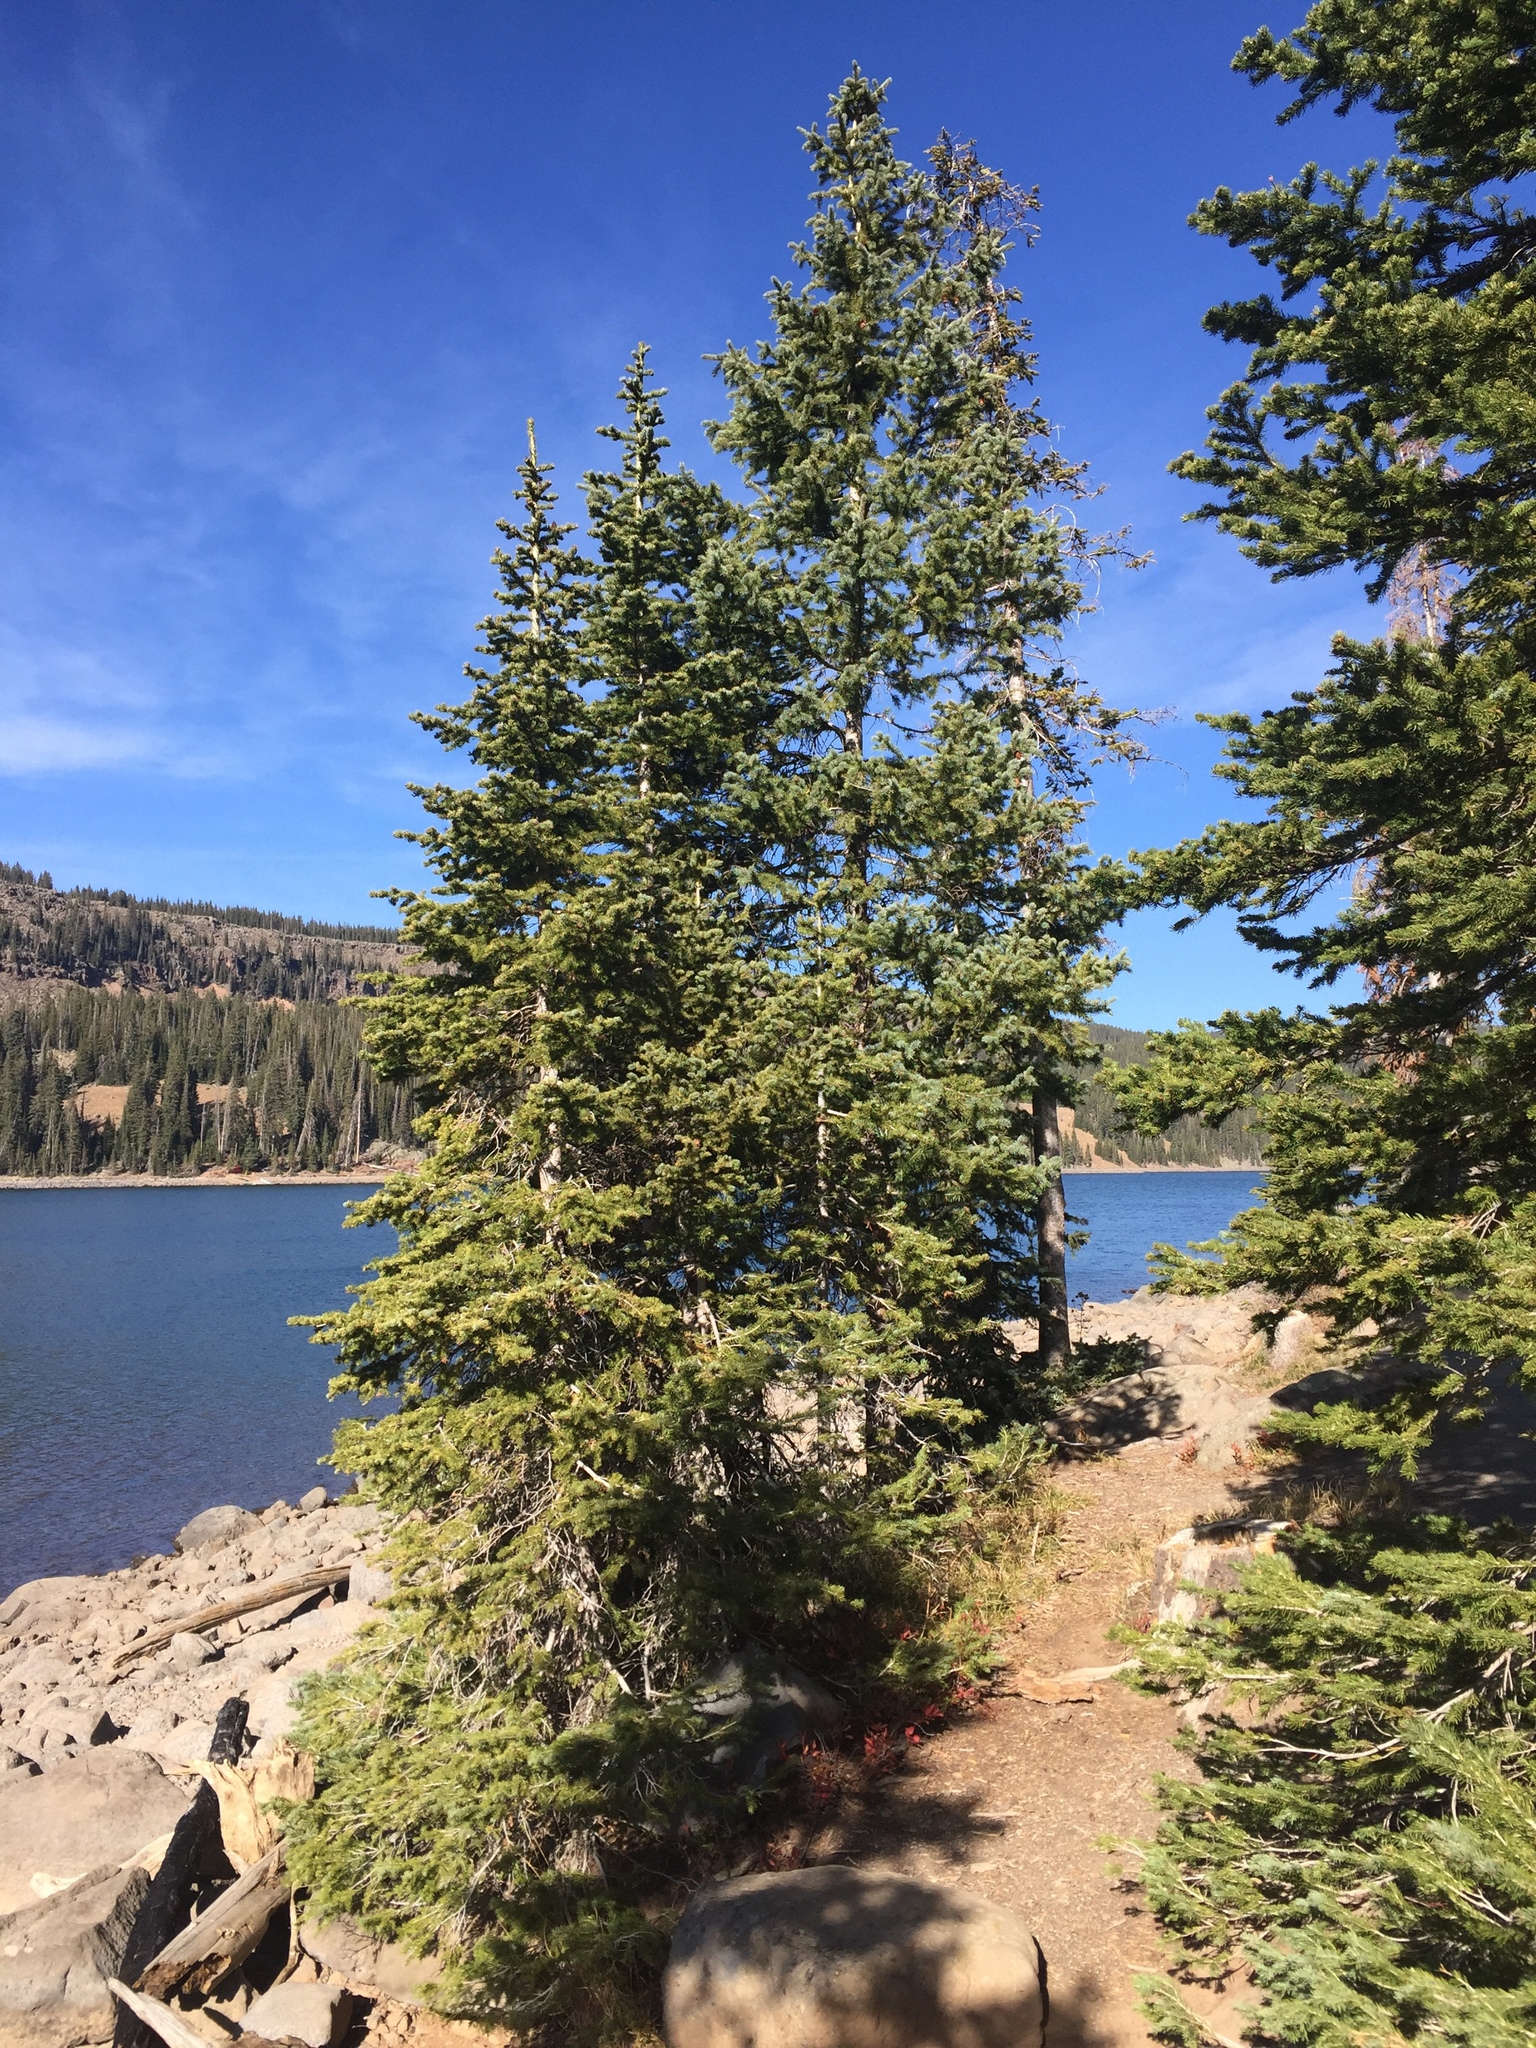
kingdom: Plantae
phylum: Tracheophyta
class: Pinopsida
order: Pinales
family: Pinaceae
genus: Picea
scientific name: Picea engelmannii
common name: Engelmann spruce
